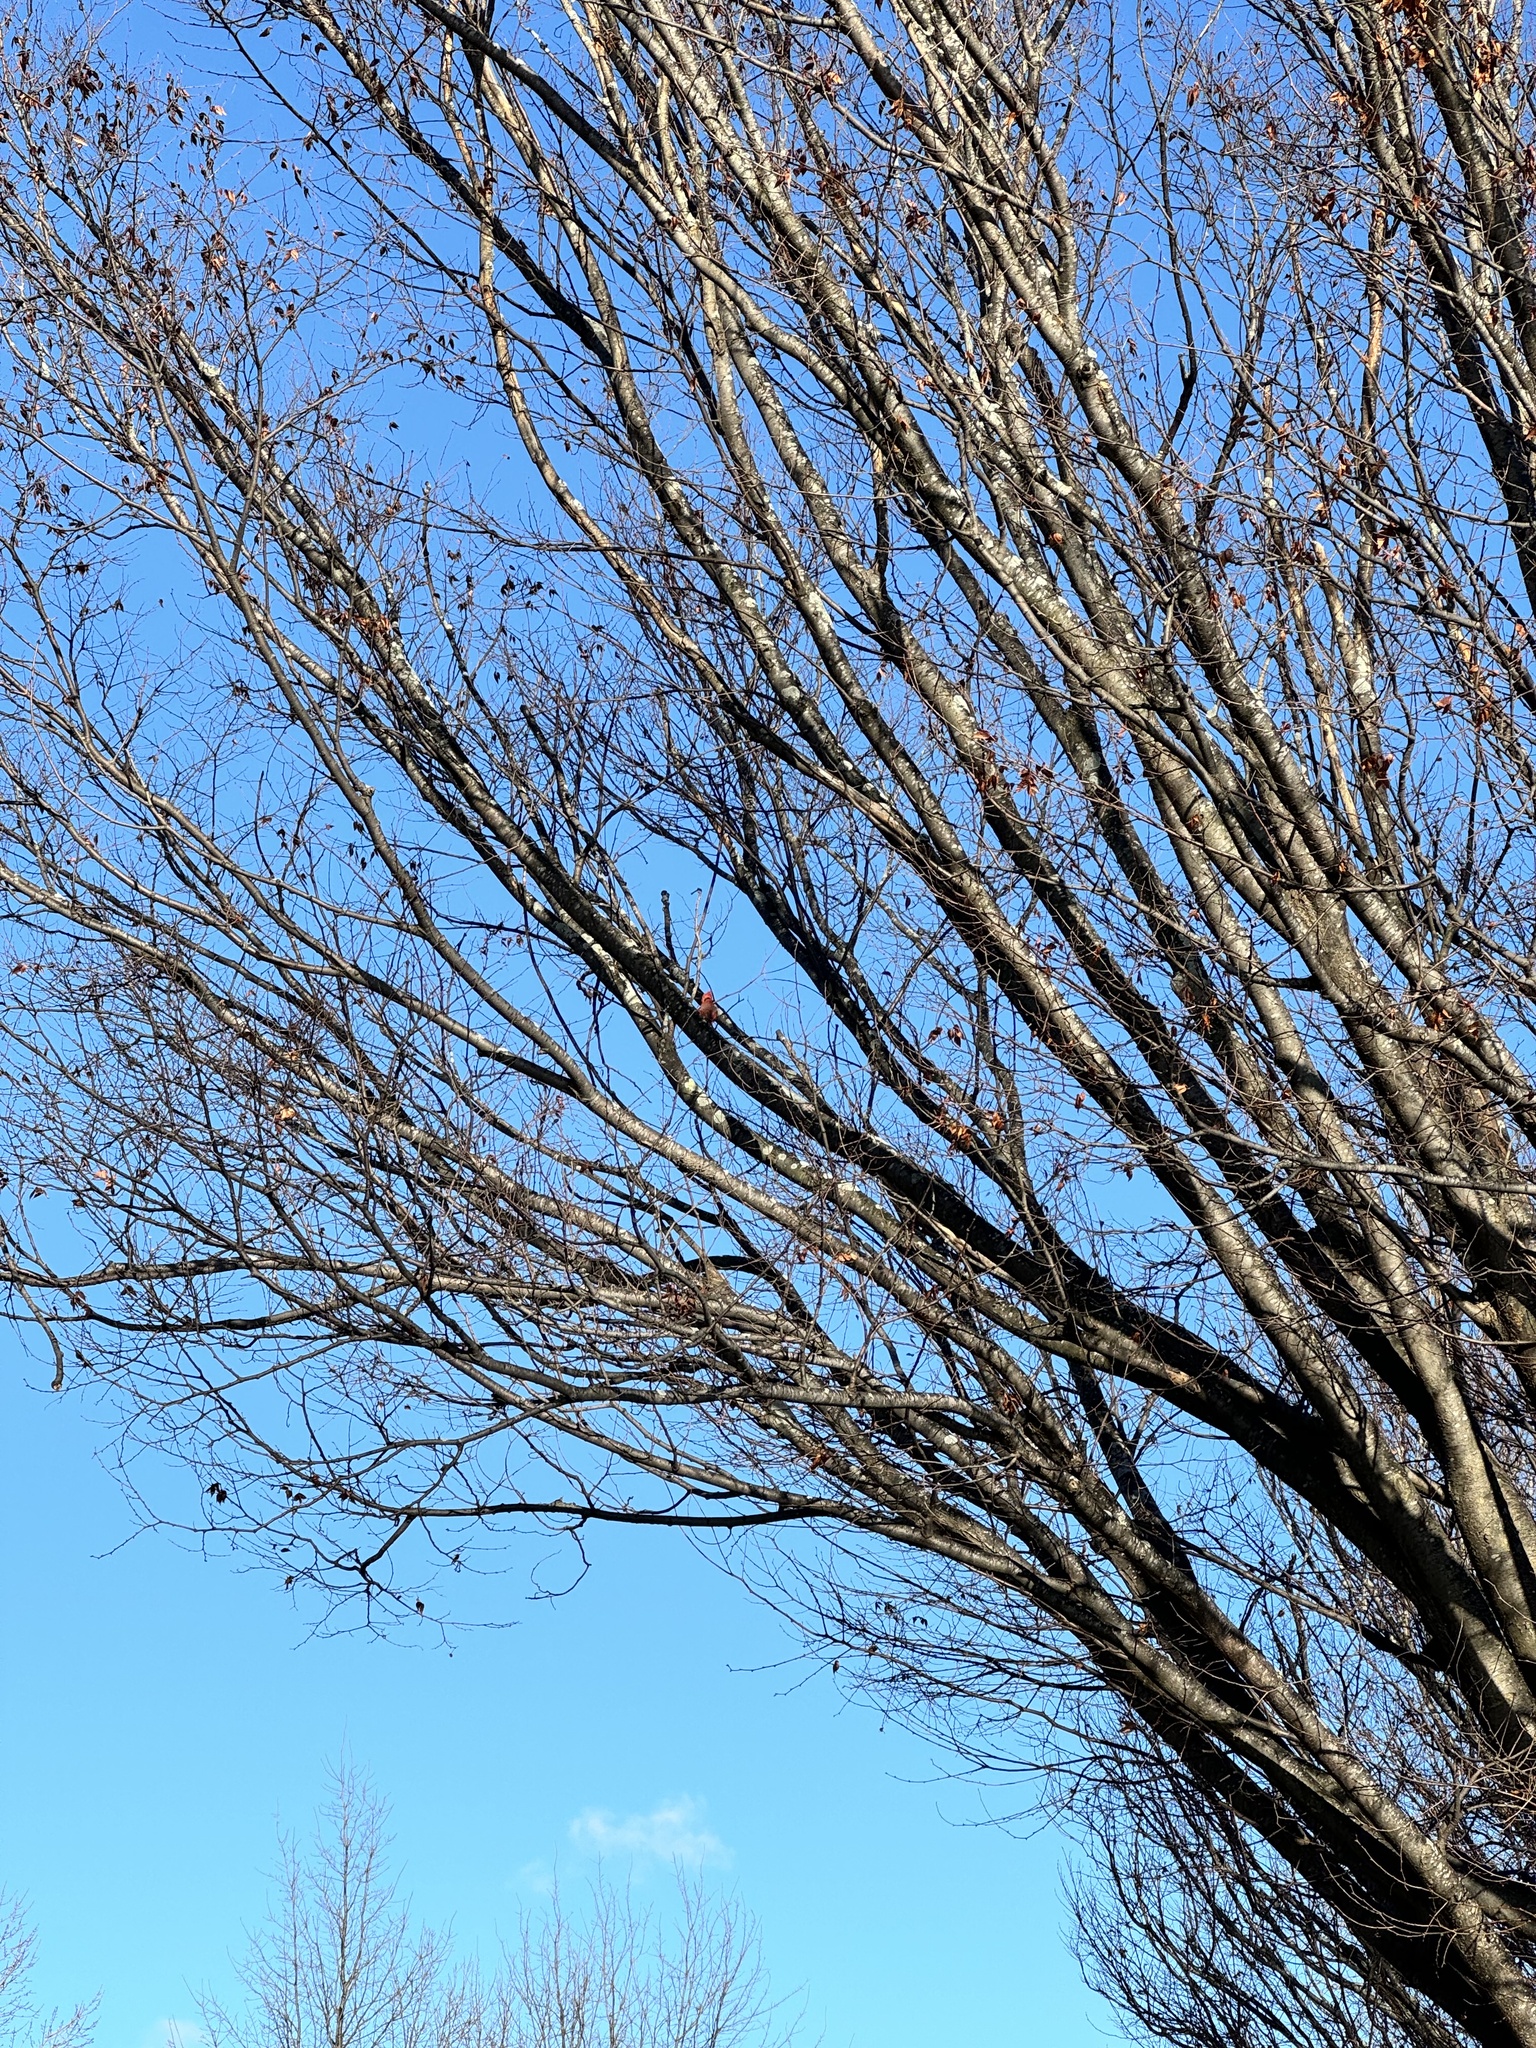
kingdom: Animalia
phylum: Chordata
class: Aves
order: Passeriformes
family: Cardinalidae
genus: Cardinalis
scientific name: Cardinalis cardinalis
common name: Northern cardinal
